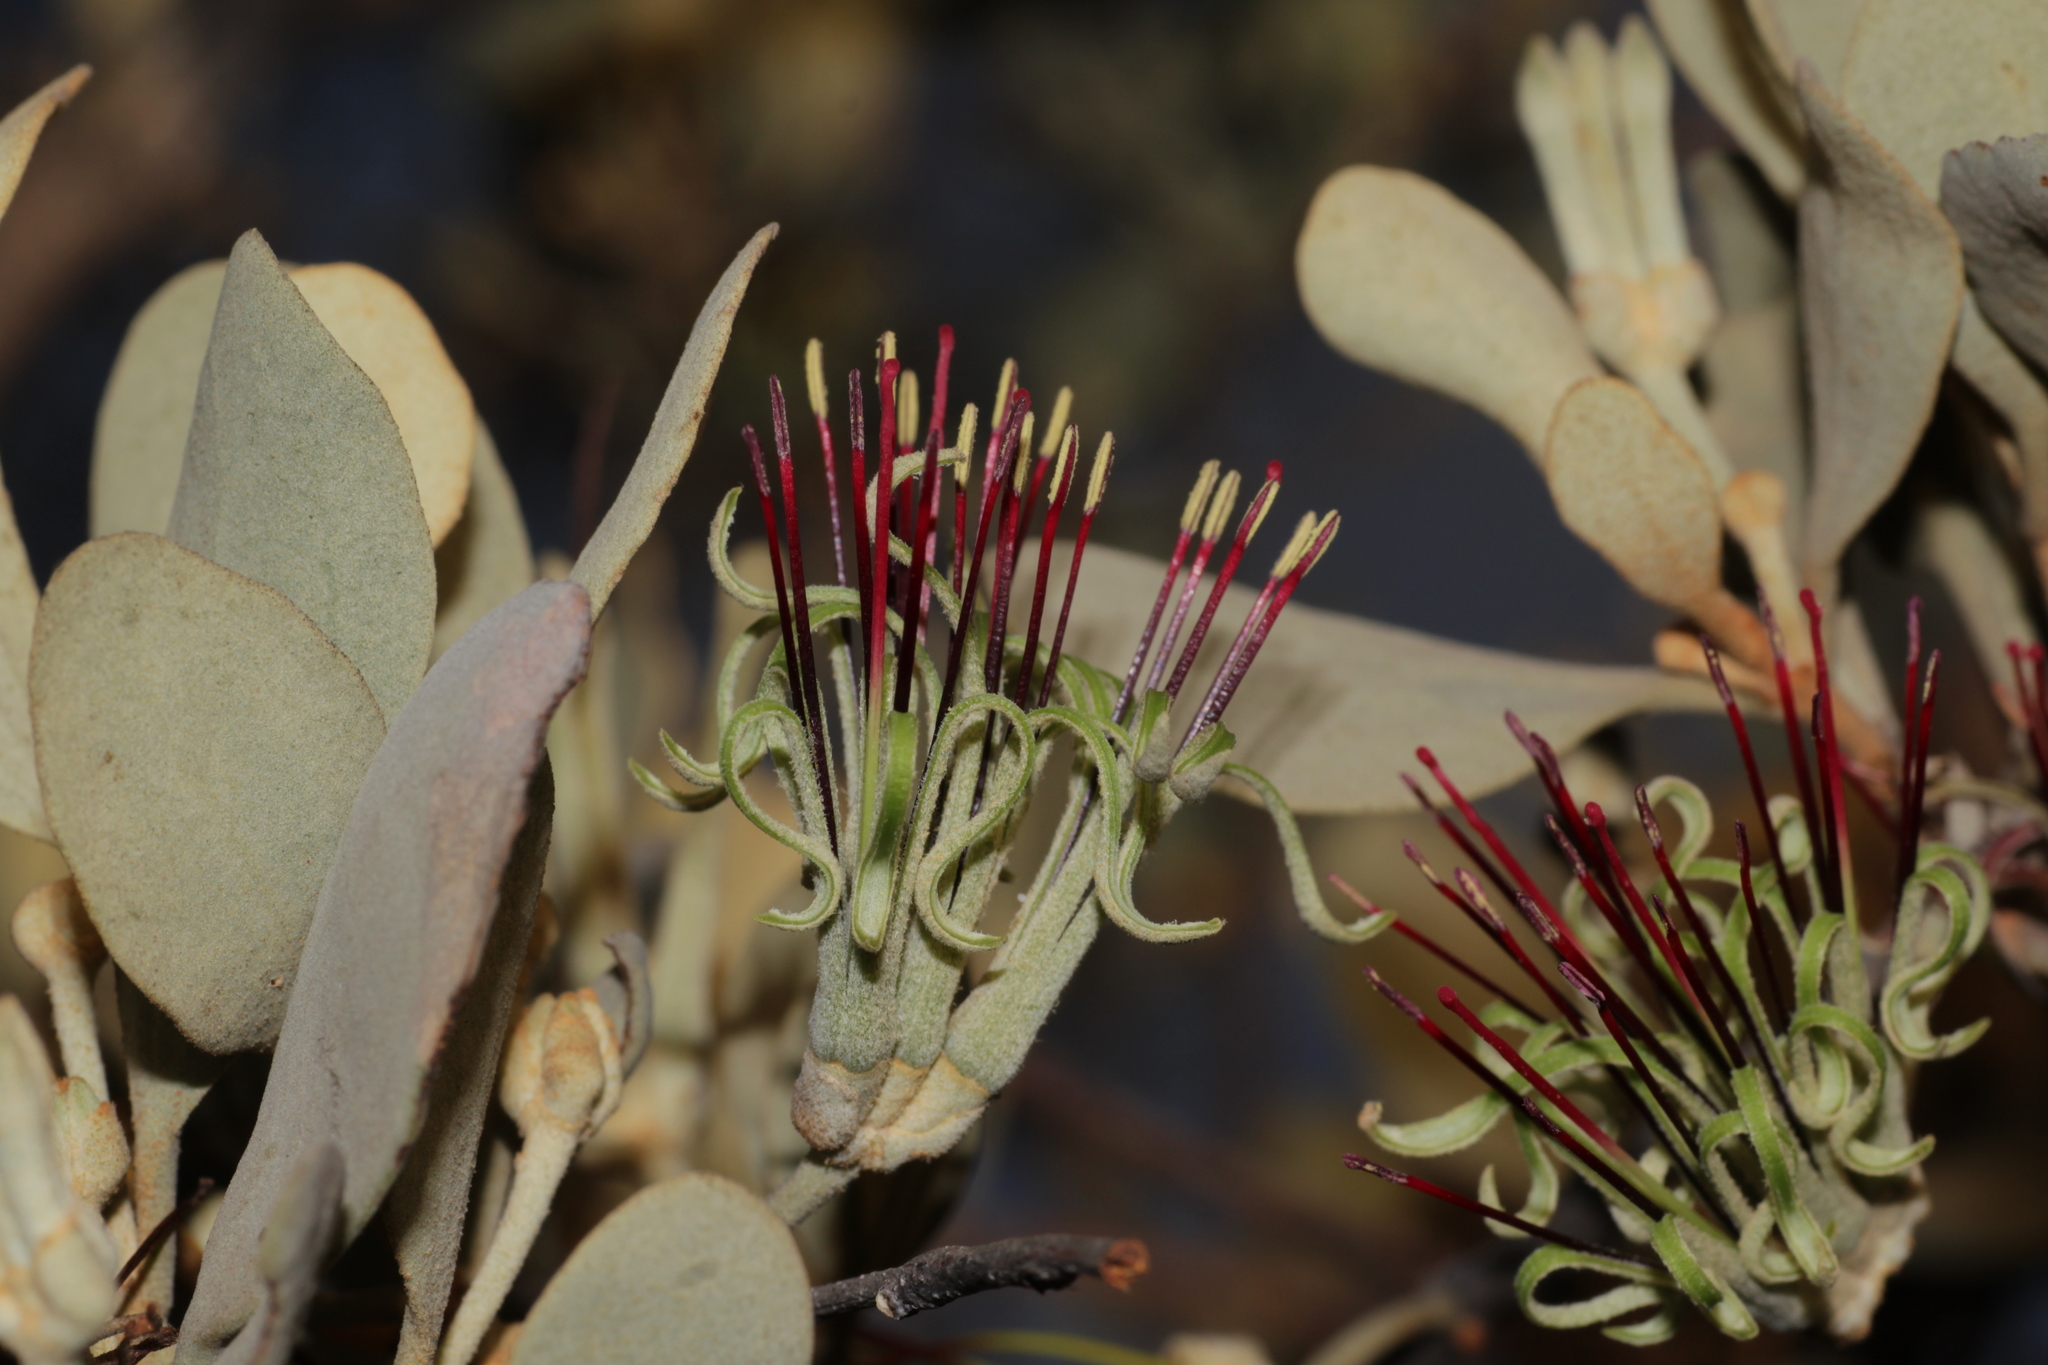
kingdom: Plantae
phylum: Tracheophyta
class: Magnoliopsida
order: Santalales
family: Loranthaceae
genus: Amyema
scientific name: Amyema fitzgeraldii
